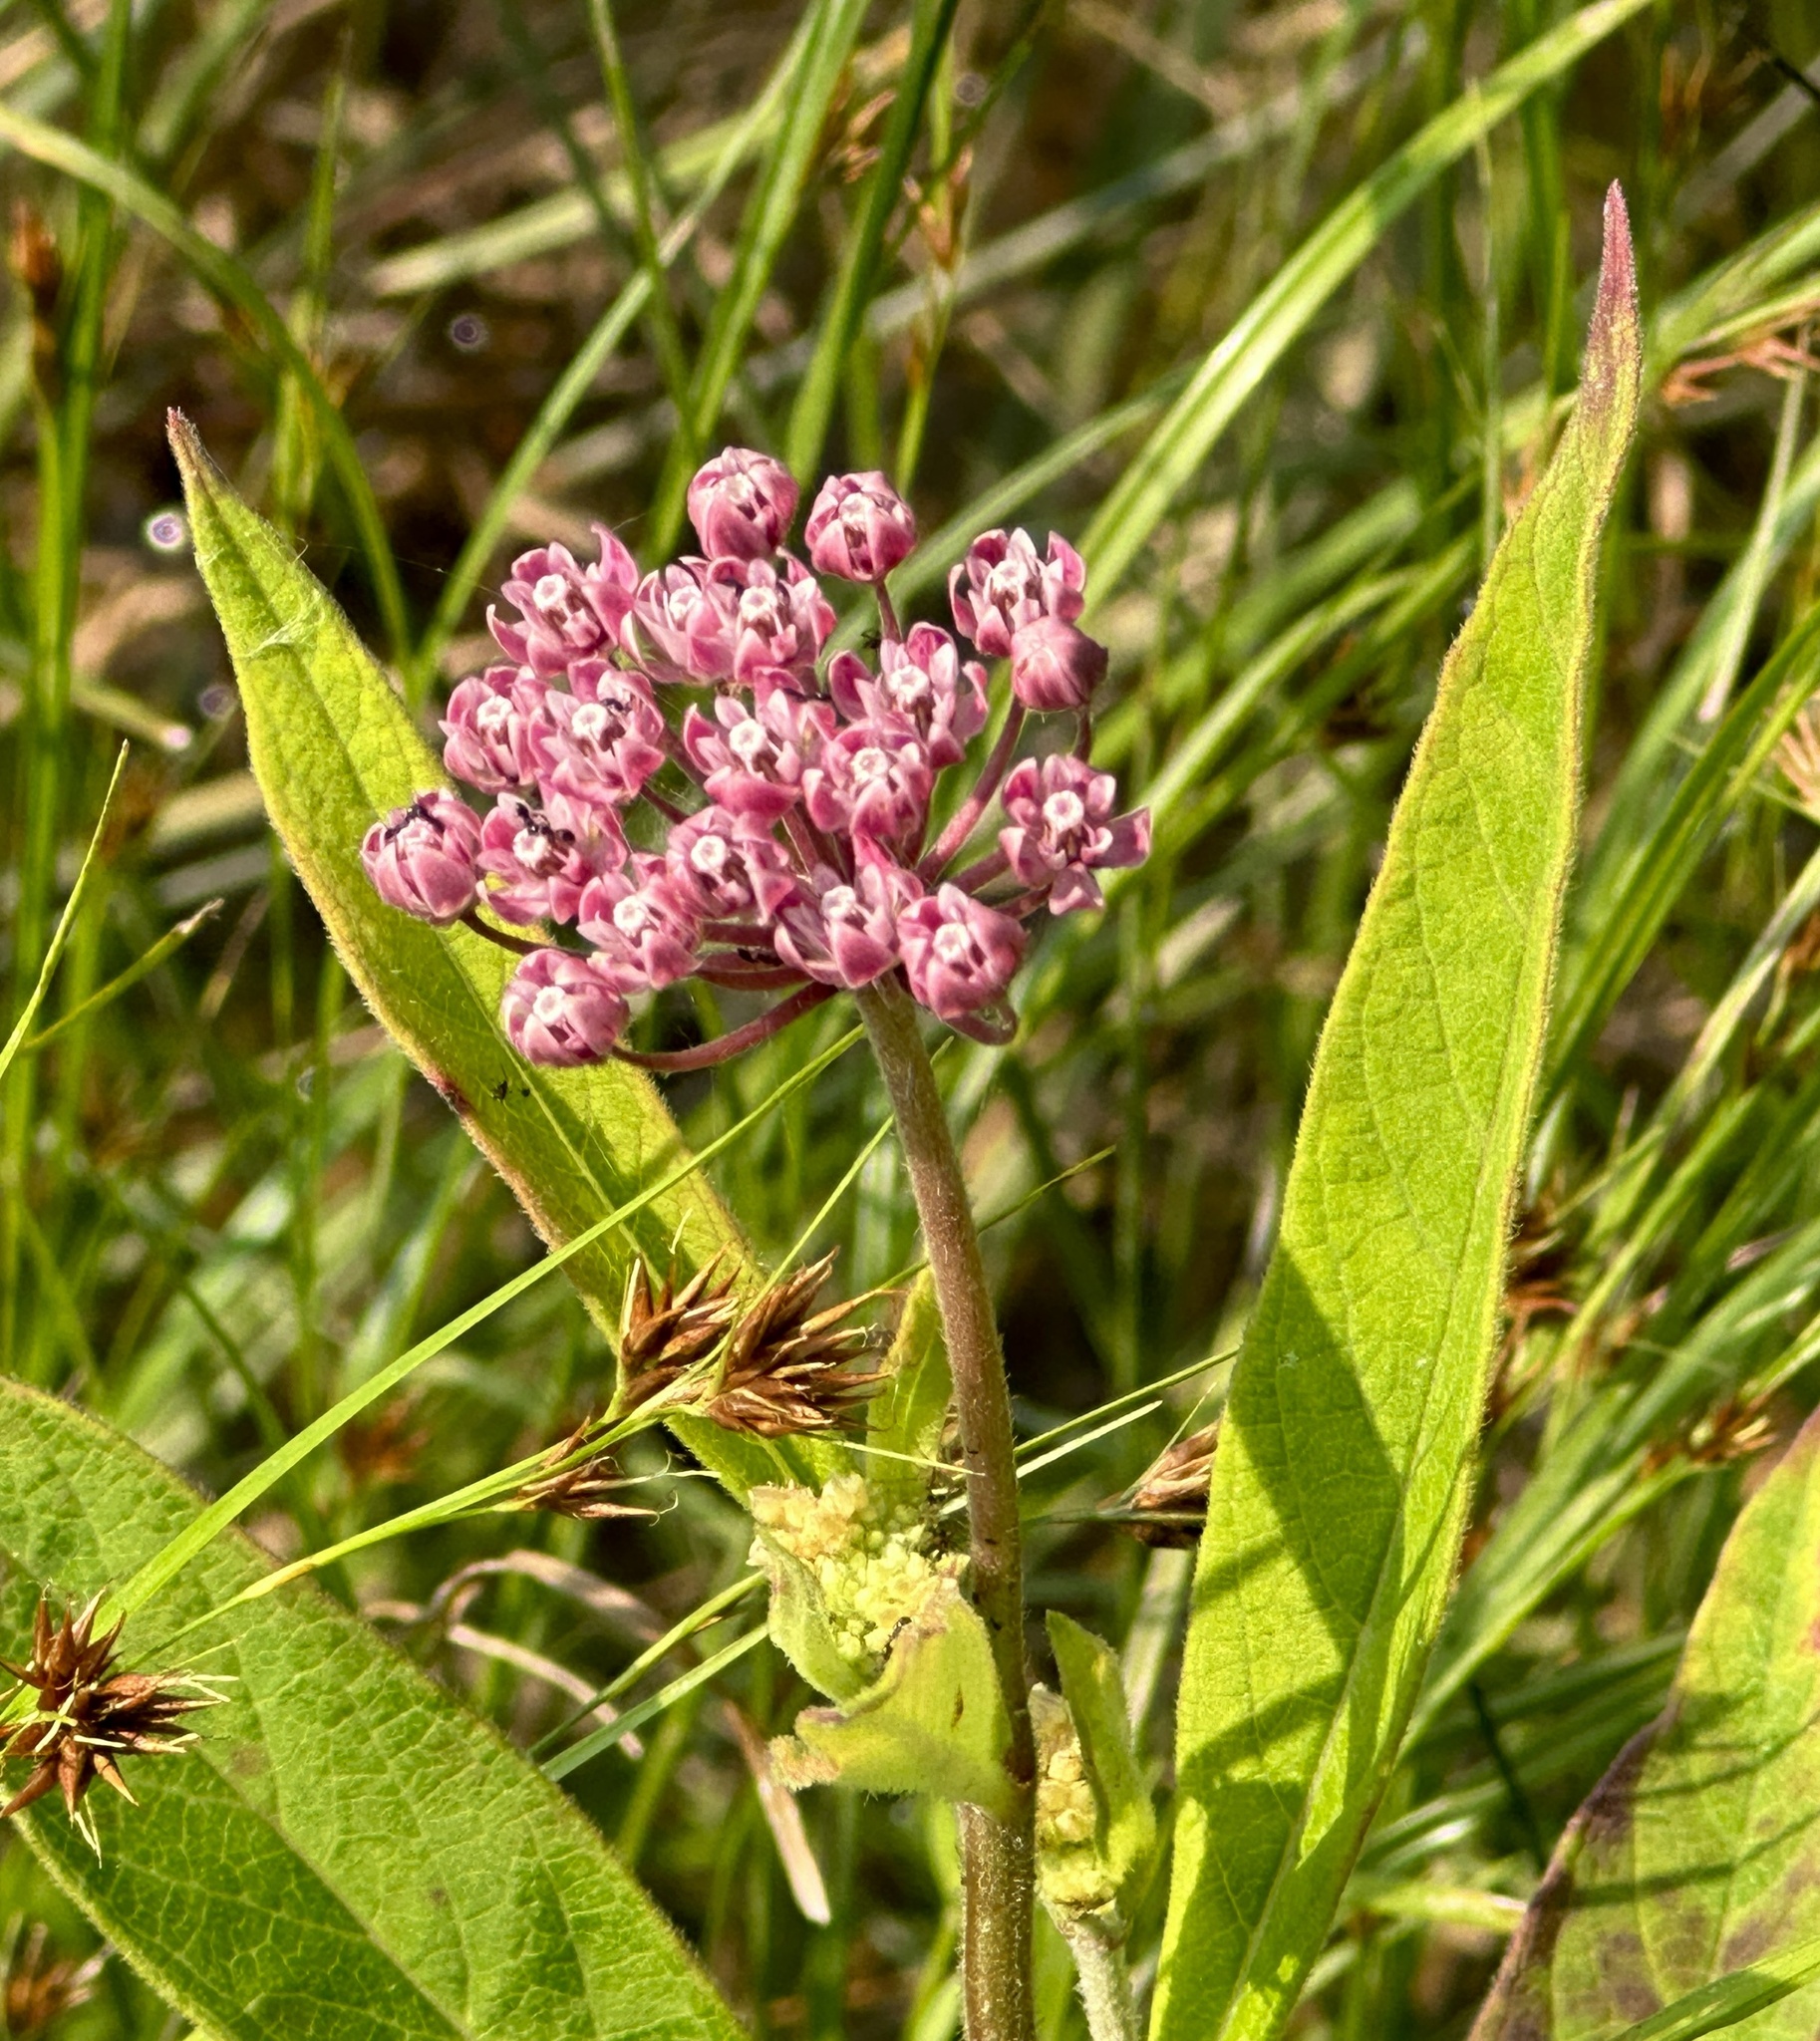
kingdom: Plantae
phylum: Tracheophyta
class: Magnoliopsida
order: Gentianales
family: Apocynaceae
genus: Asclepias
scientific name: Asclepias incarnata
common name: Swamp milkweed
